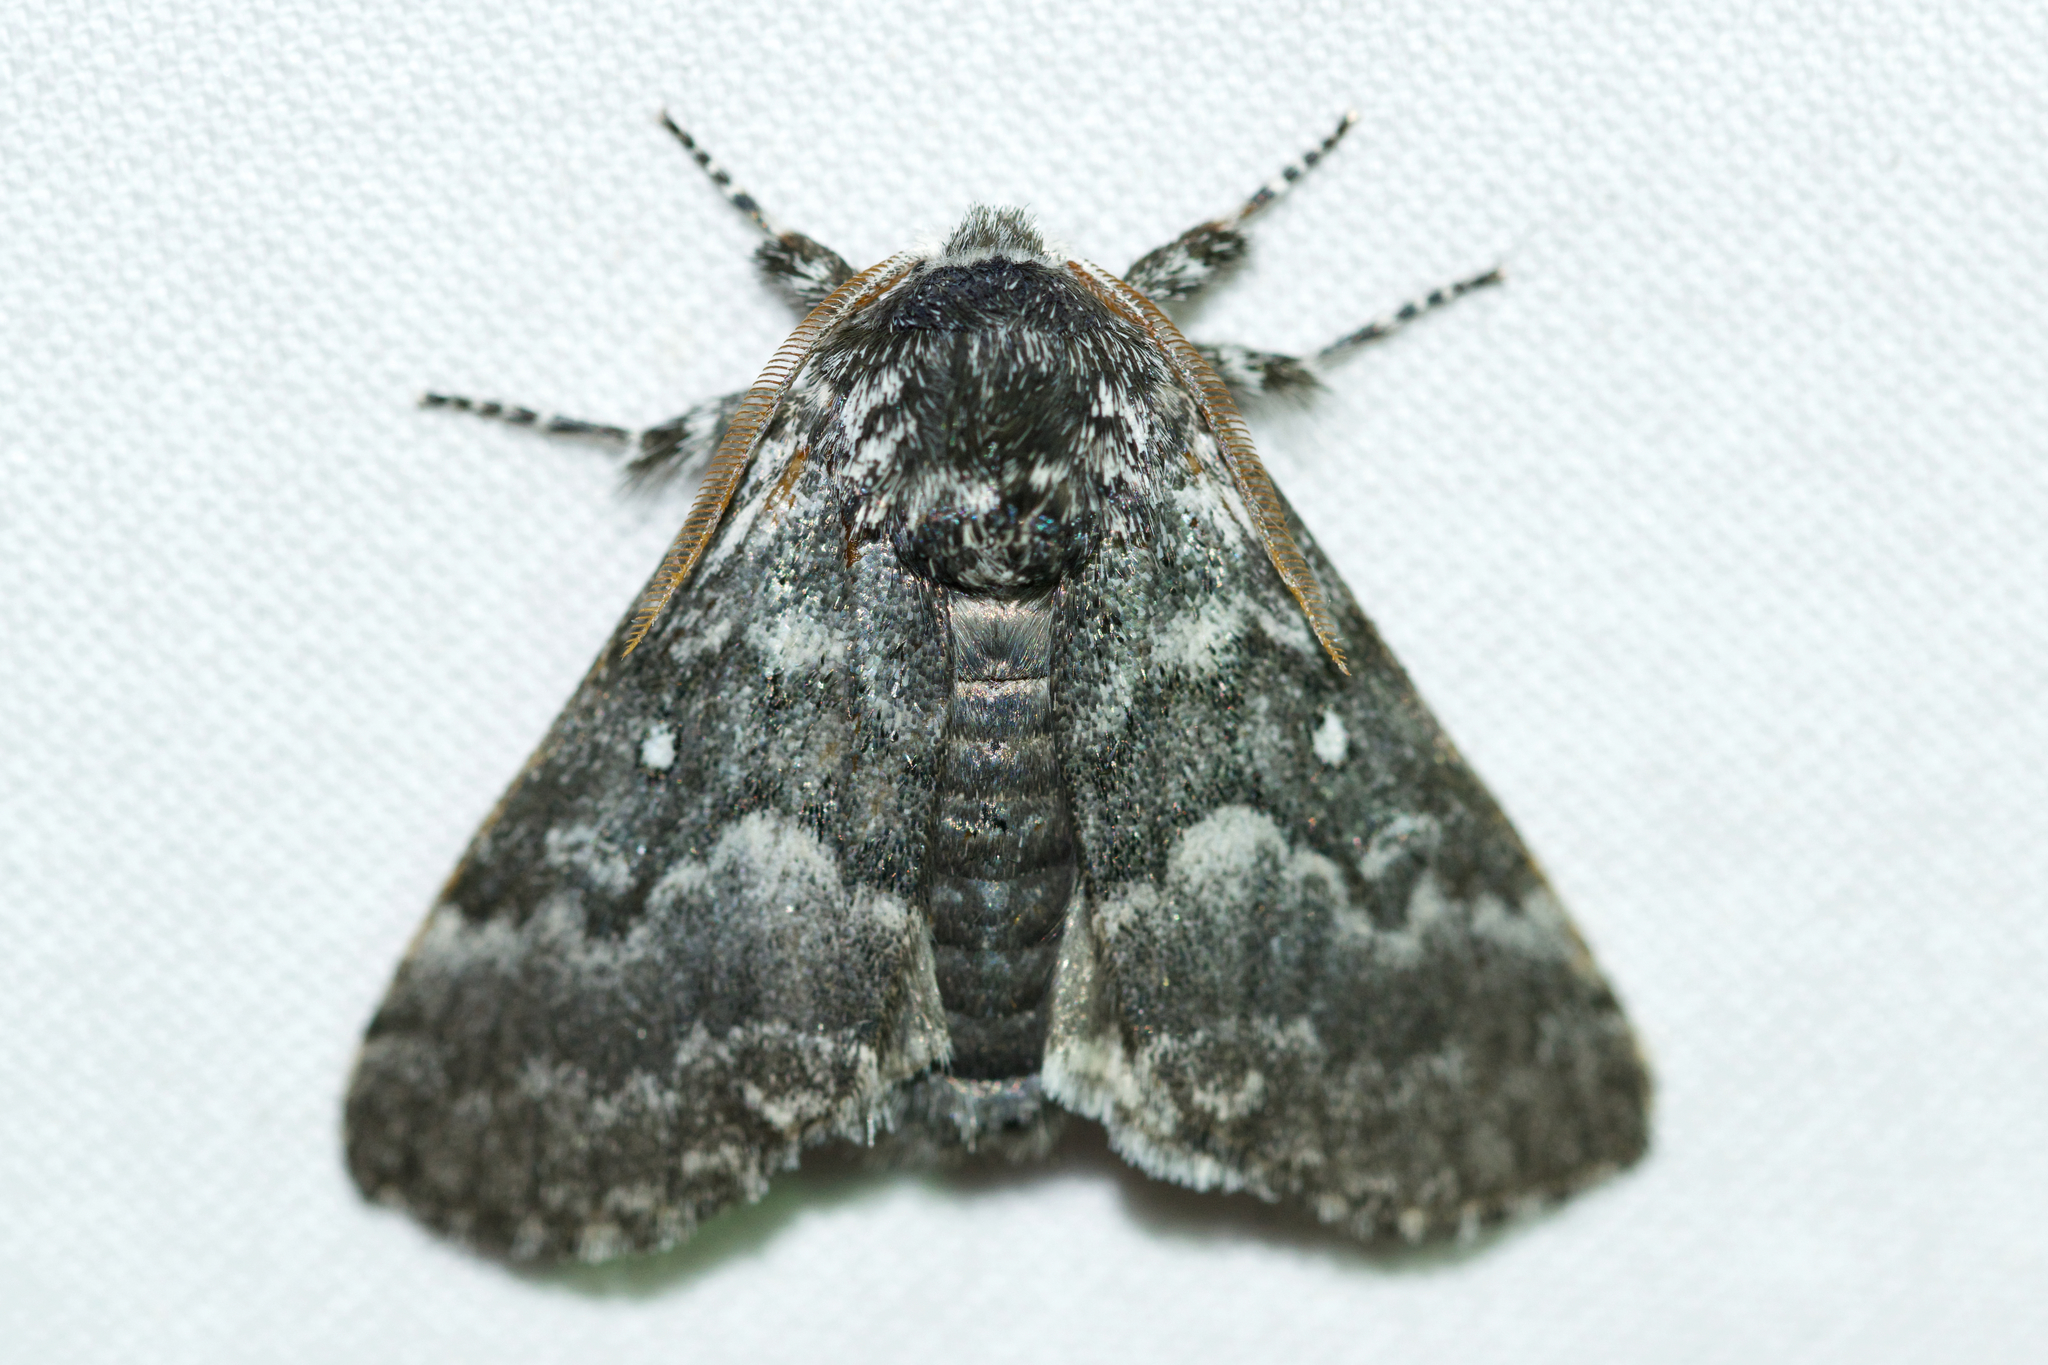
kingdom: Animalia
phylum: Arthropoda
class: Insecta
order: Lepidoptera
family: Noctuidae
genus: Colocasia
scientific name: Colocasia propinquilinea
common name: Close-banded demas
